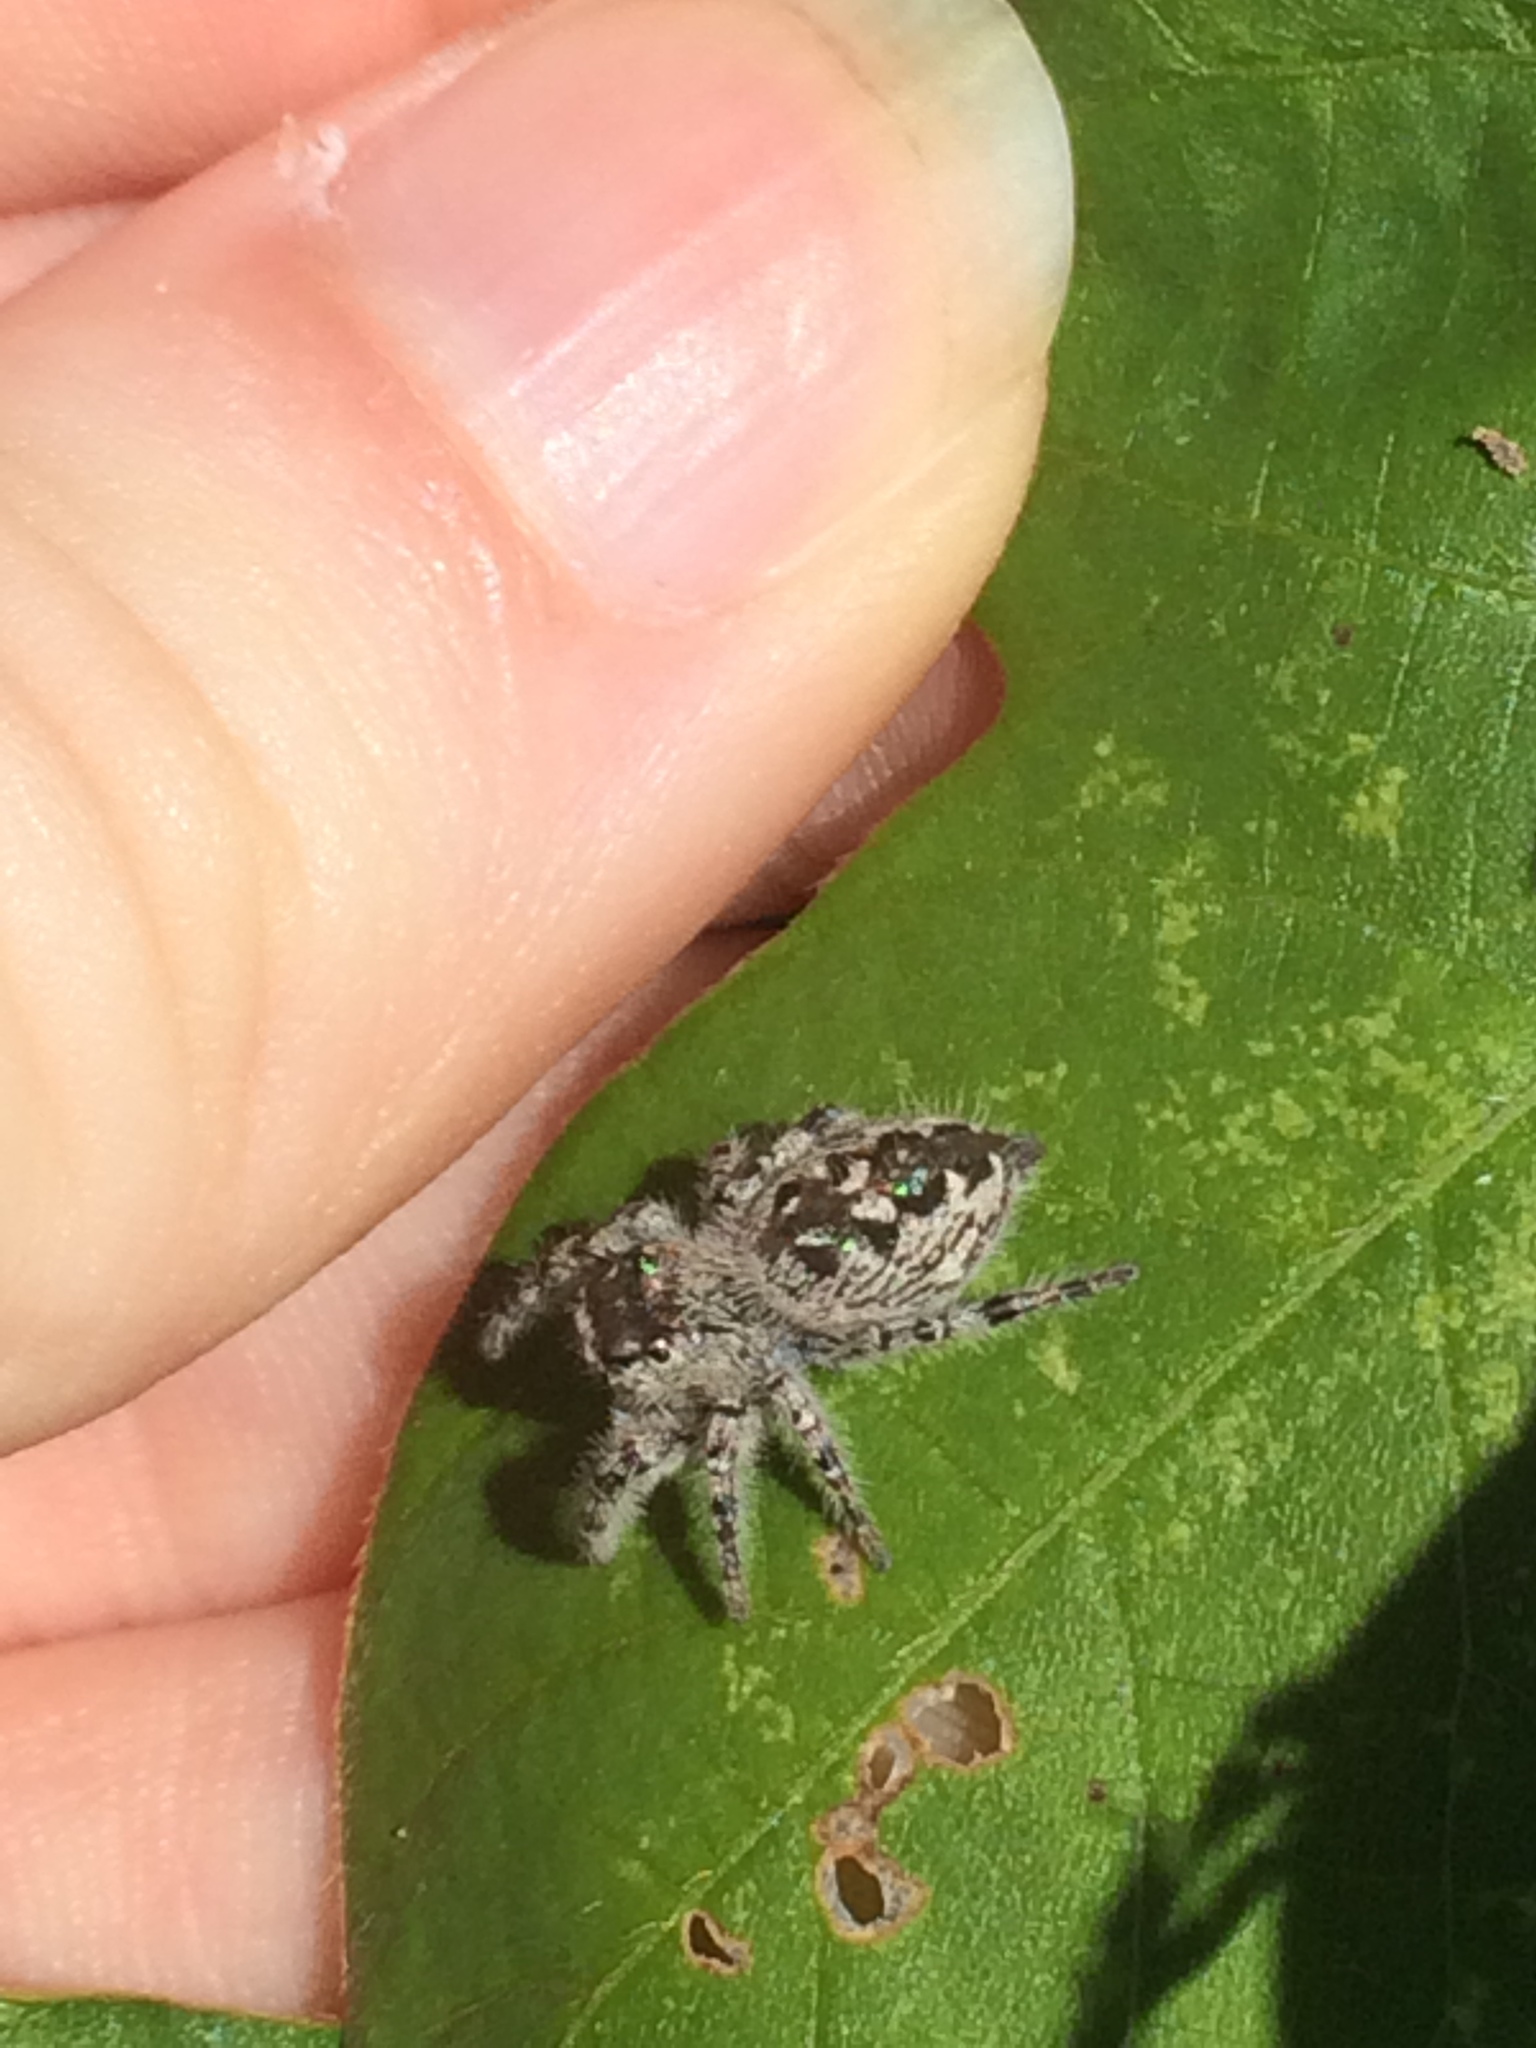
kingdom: Animalia
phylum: Arthropoda
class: Arachnida
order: Araneae
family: Salticidae
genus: Phidippus
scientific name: Phidippus otiosus
